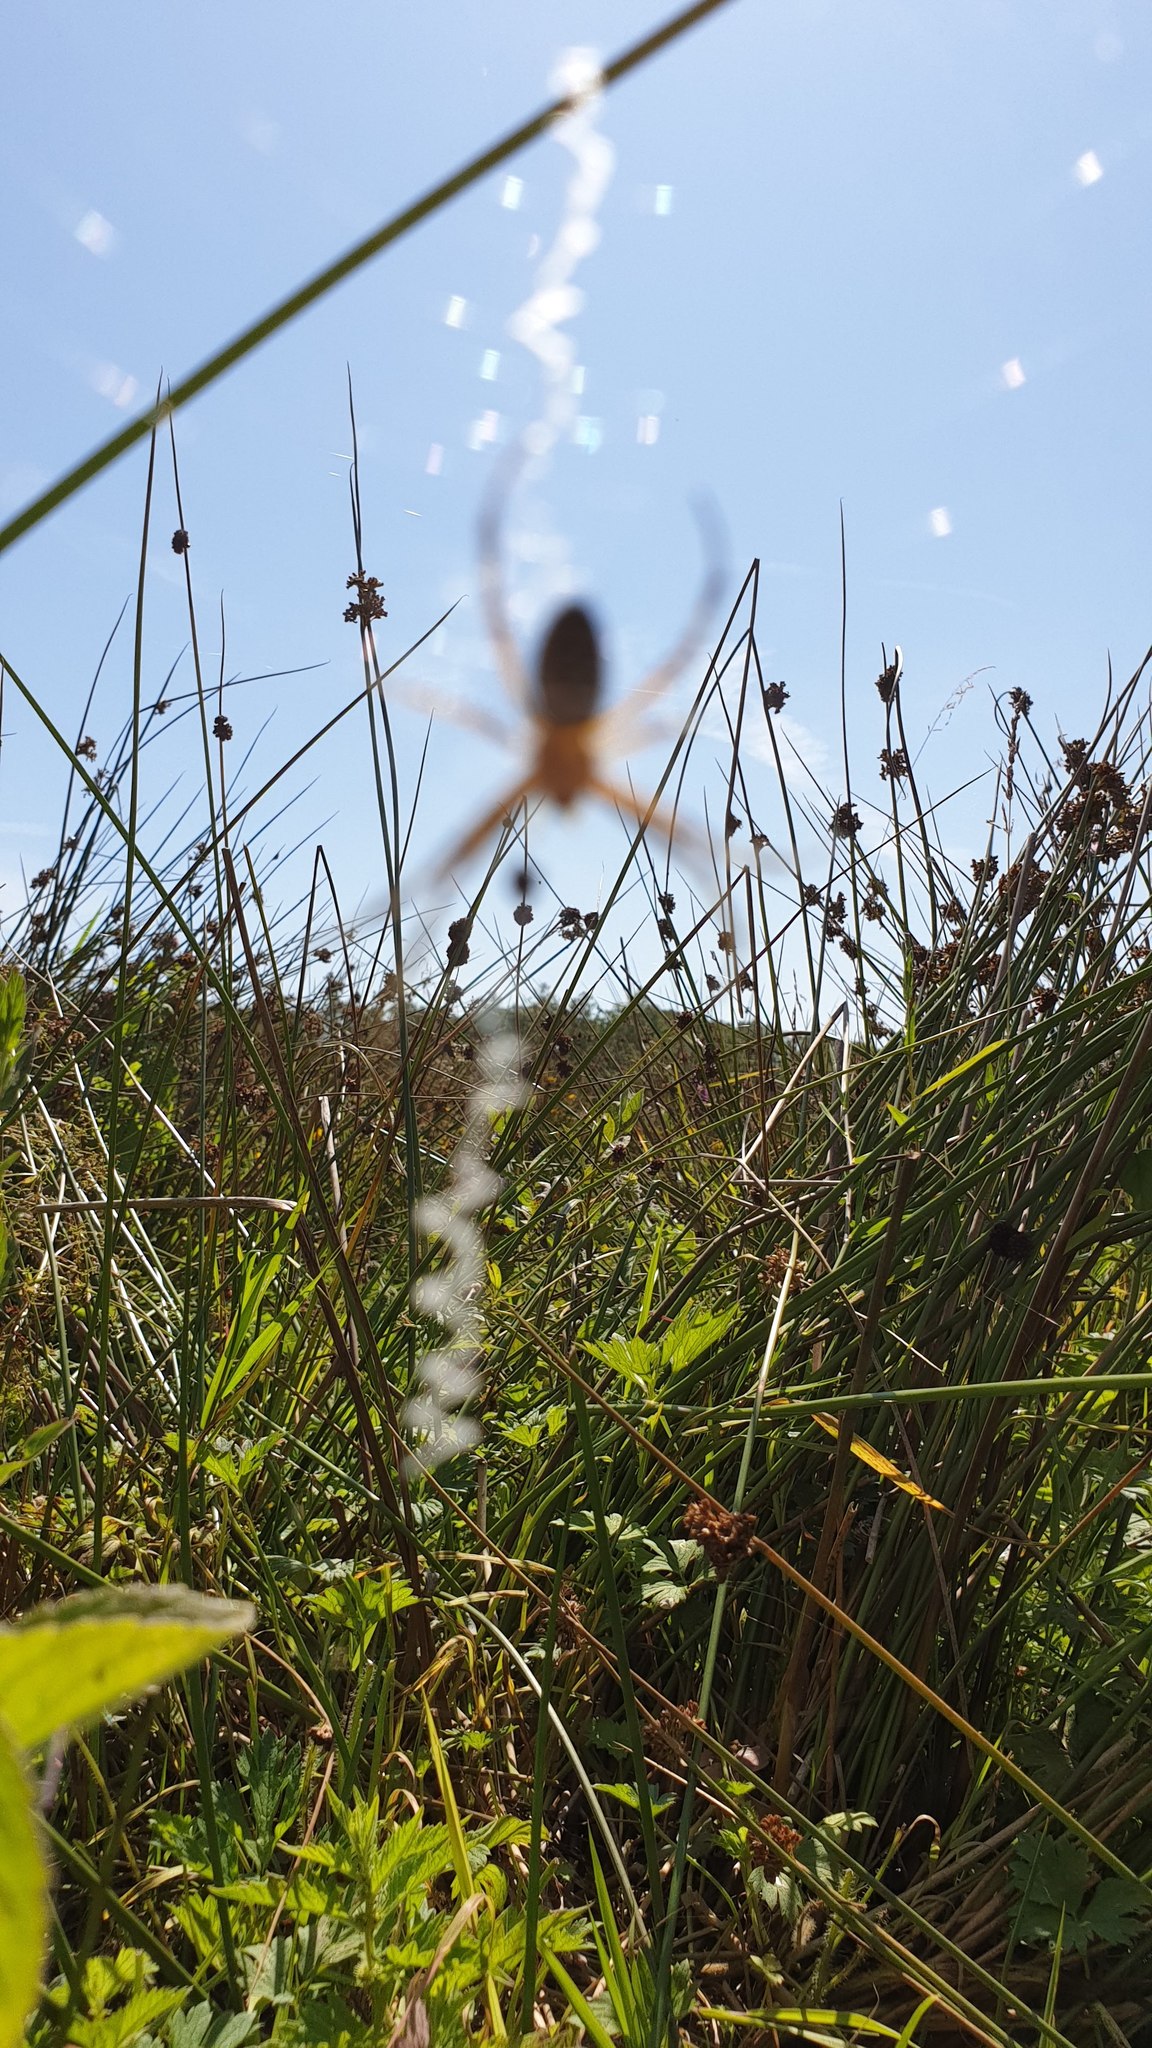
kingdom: Animalia
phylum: Arthropoda
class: Arachnida
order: Araneae
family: Araneidae
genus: Argiope
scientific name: Argiope bruennichi
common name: Wasp spider
